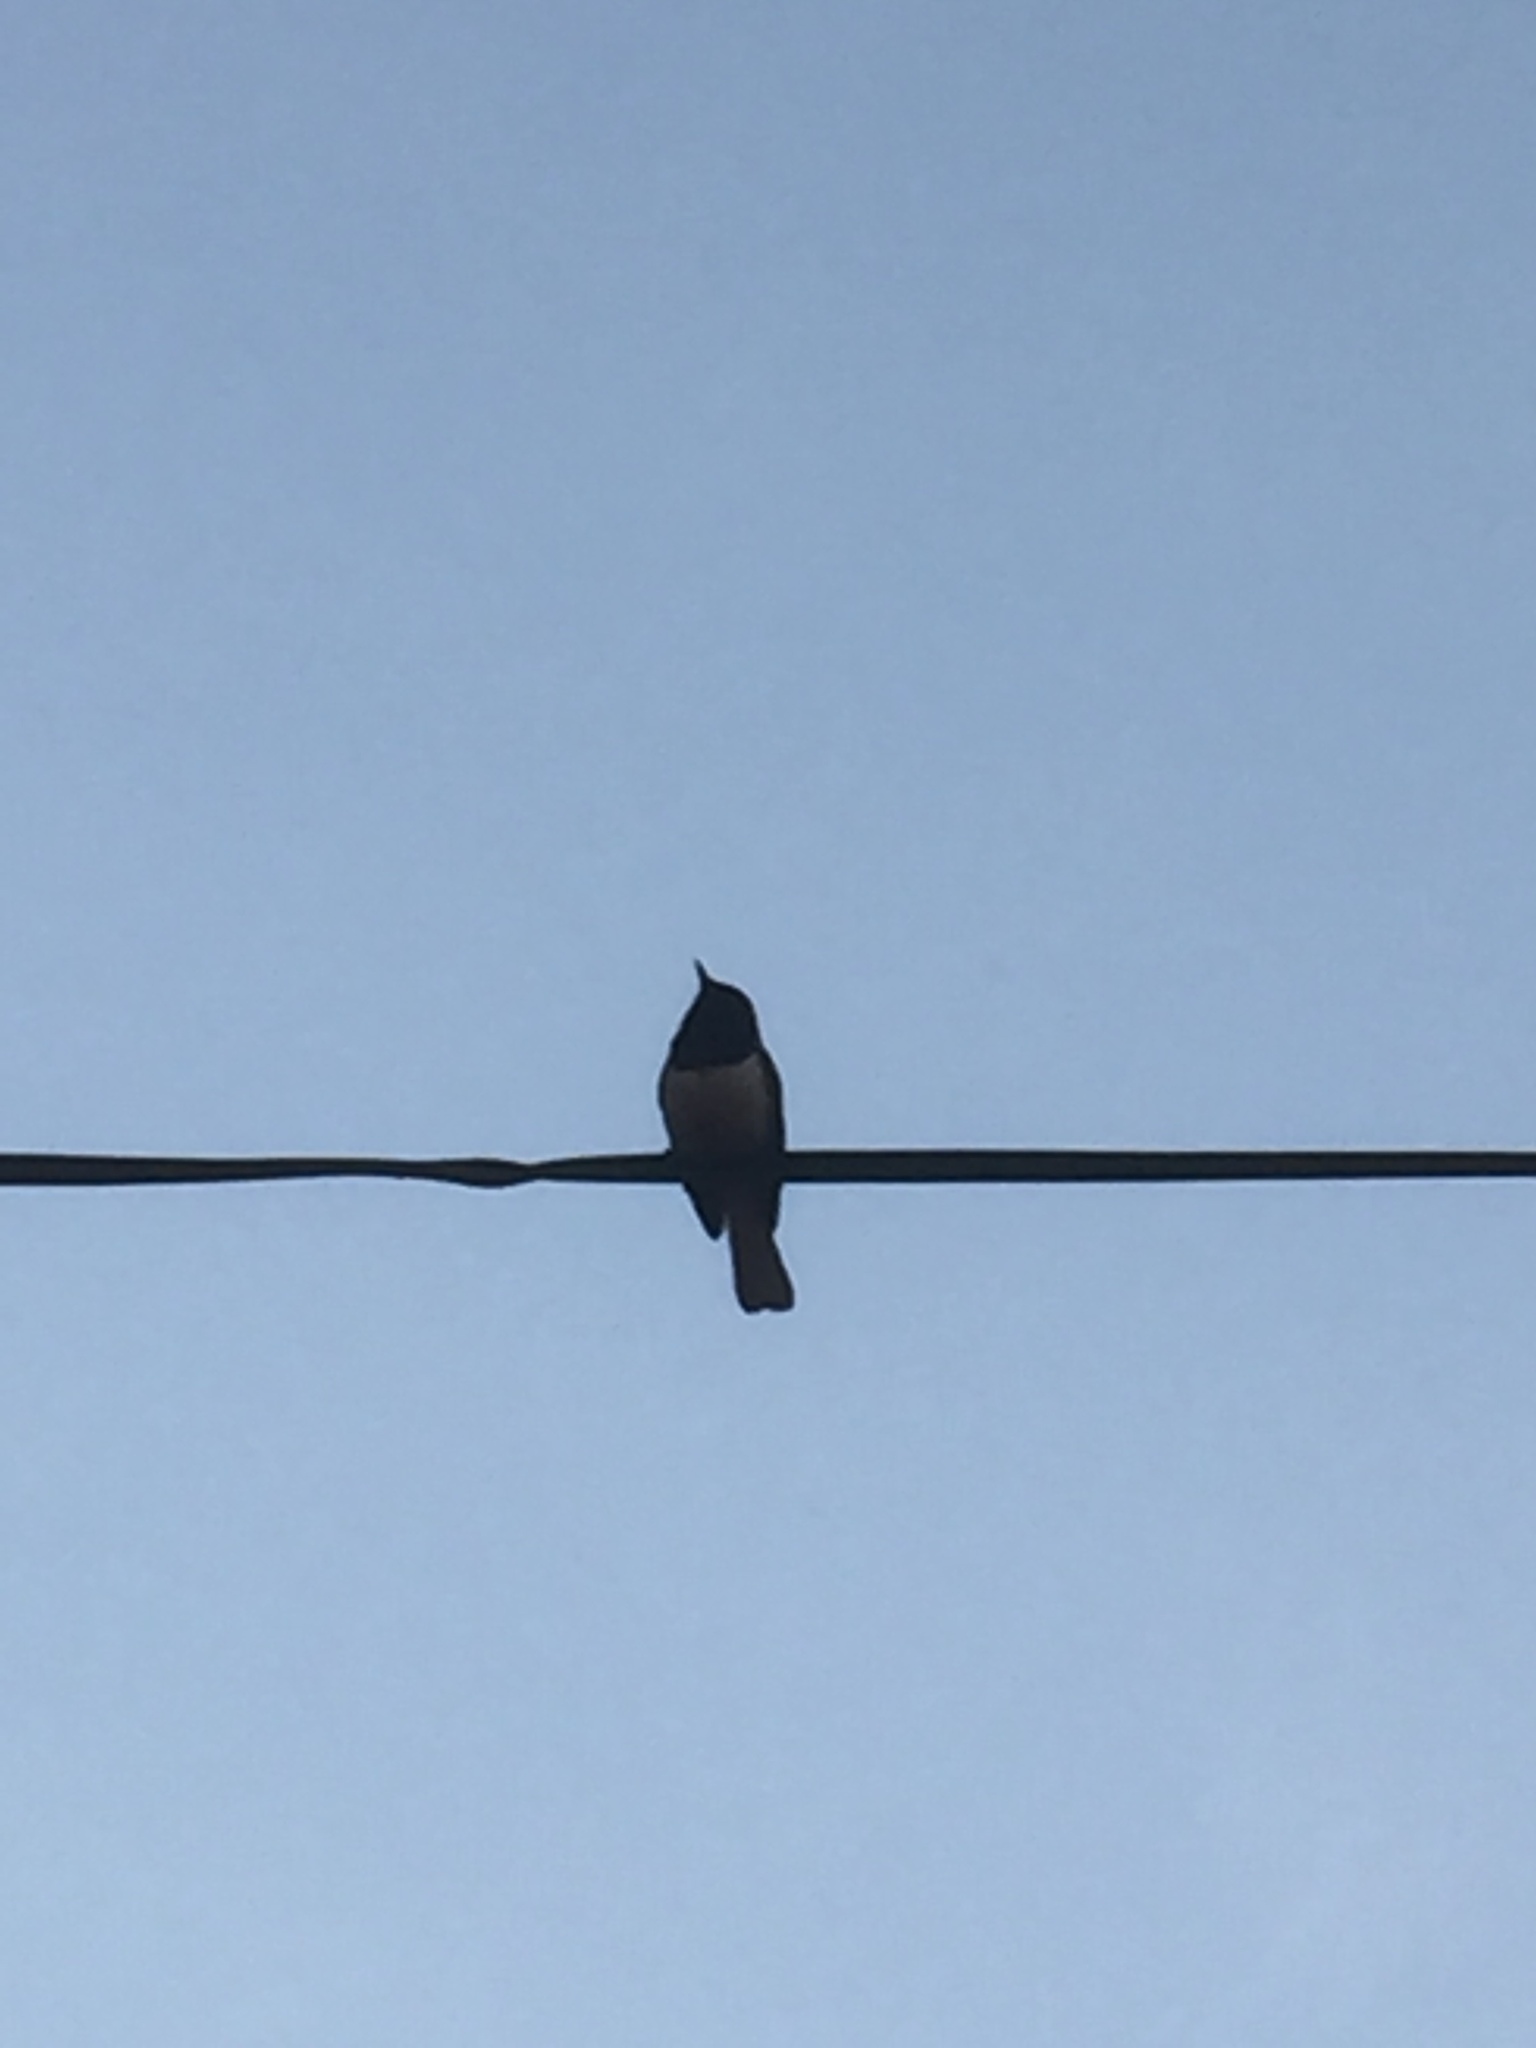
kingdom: Animalia
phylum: Chordata
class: Aves
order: Passeriformes
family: Muscicapidae
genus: Copsychus
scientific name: Copsychus saularis
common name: Oriental magpie-robin
